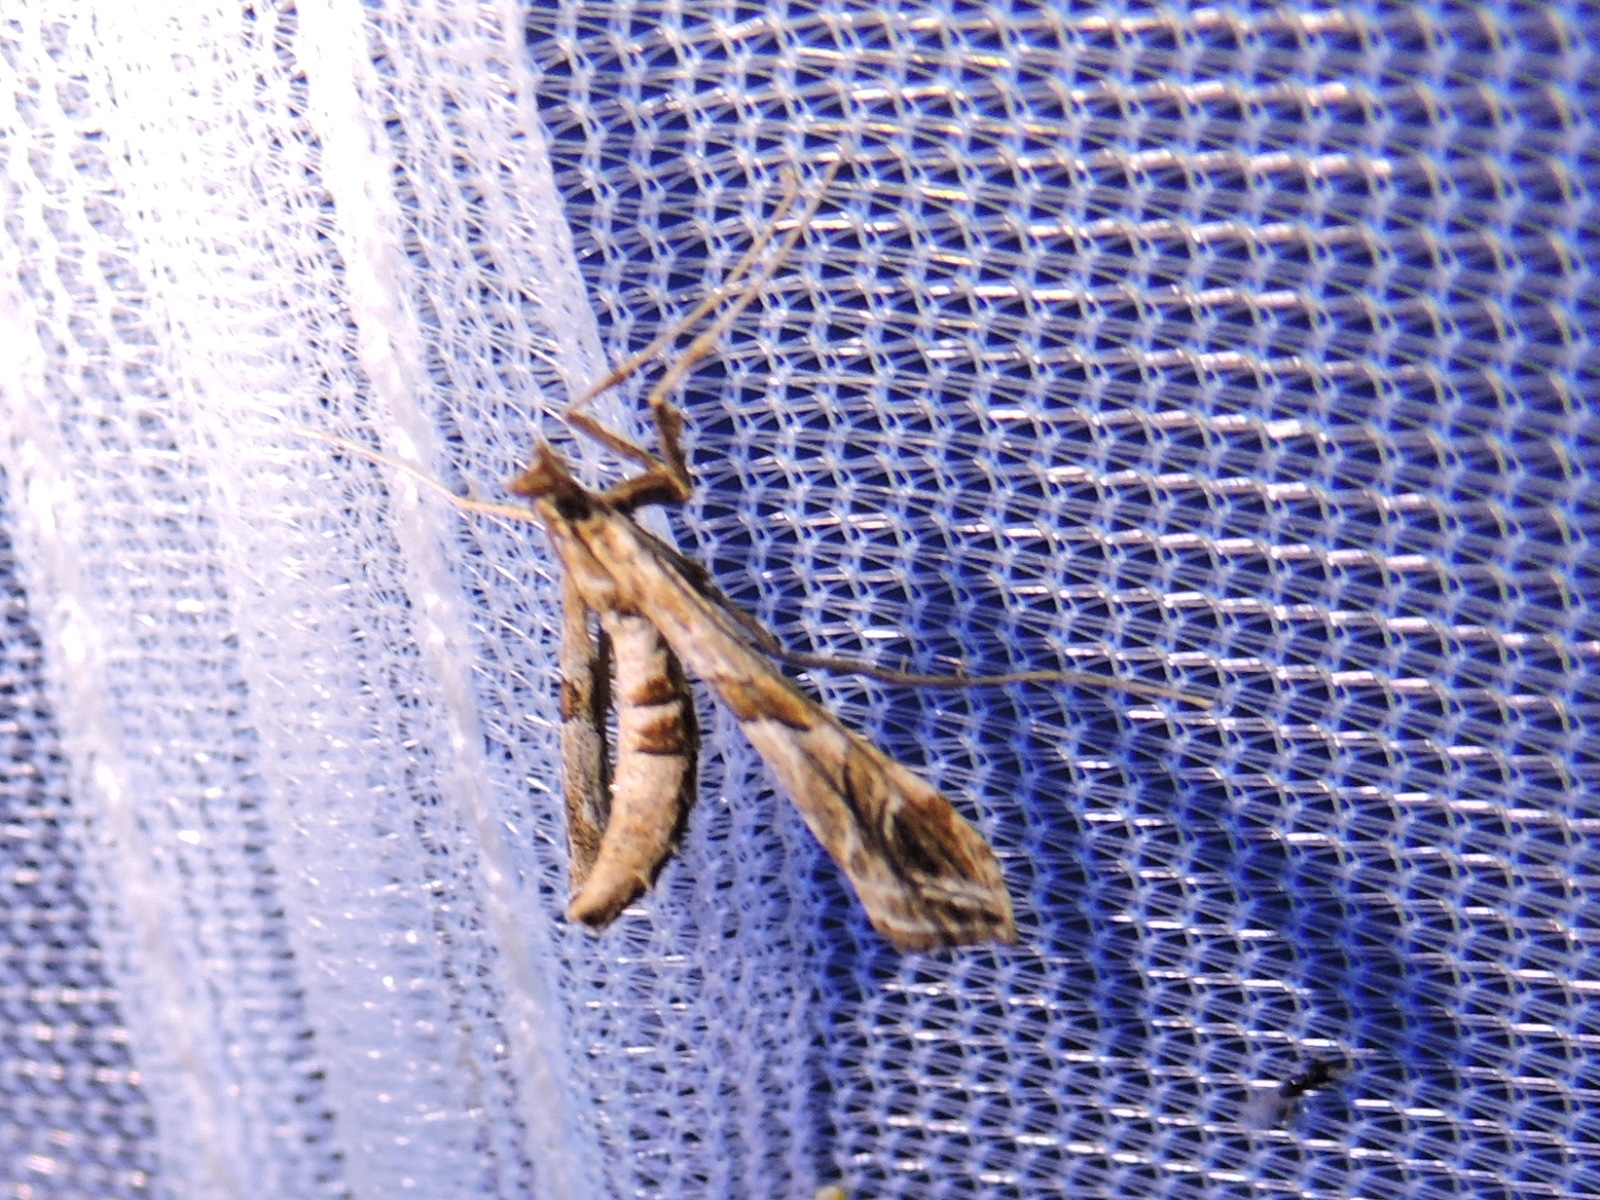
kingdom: Animalia
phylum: Arthropoda
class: Insecta
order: Lepidoptera
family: Crambidae
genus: Lineodes
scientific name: Lineodes interrupta
